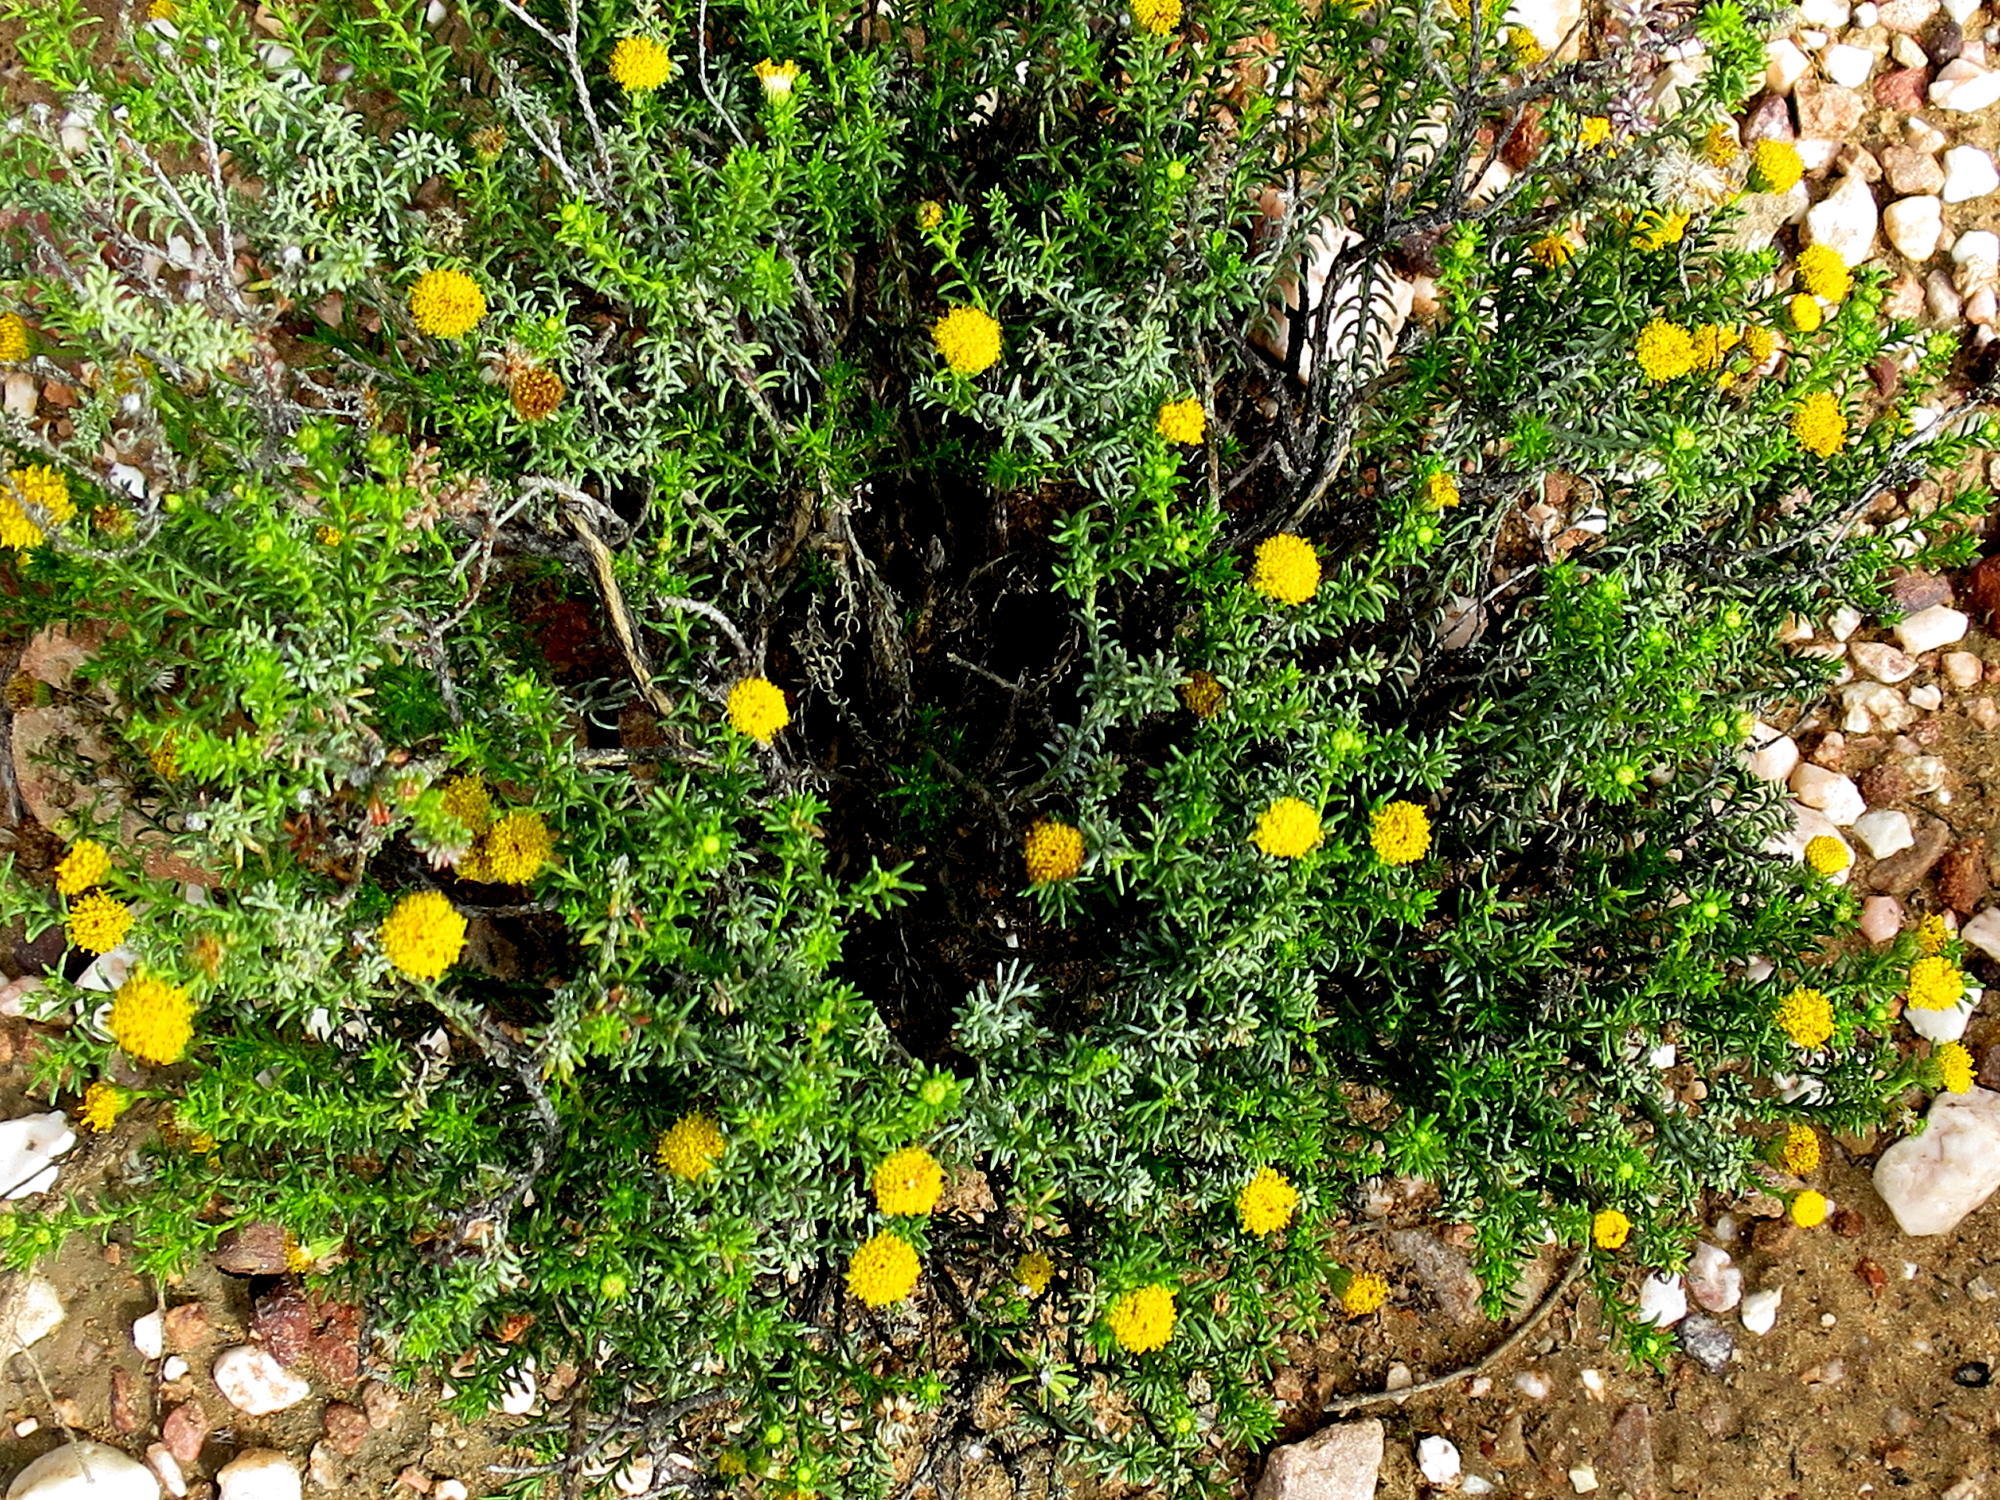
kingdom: Plantae
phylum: Tracheophyta
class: Magnoliopsida
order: Asterales
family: Asteraceae
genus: Chrysocoma
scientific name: Chrysocoma ciliata
